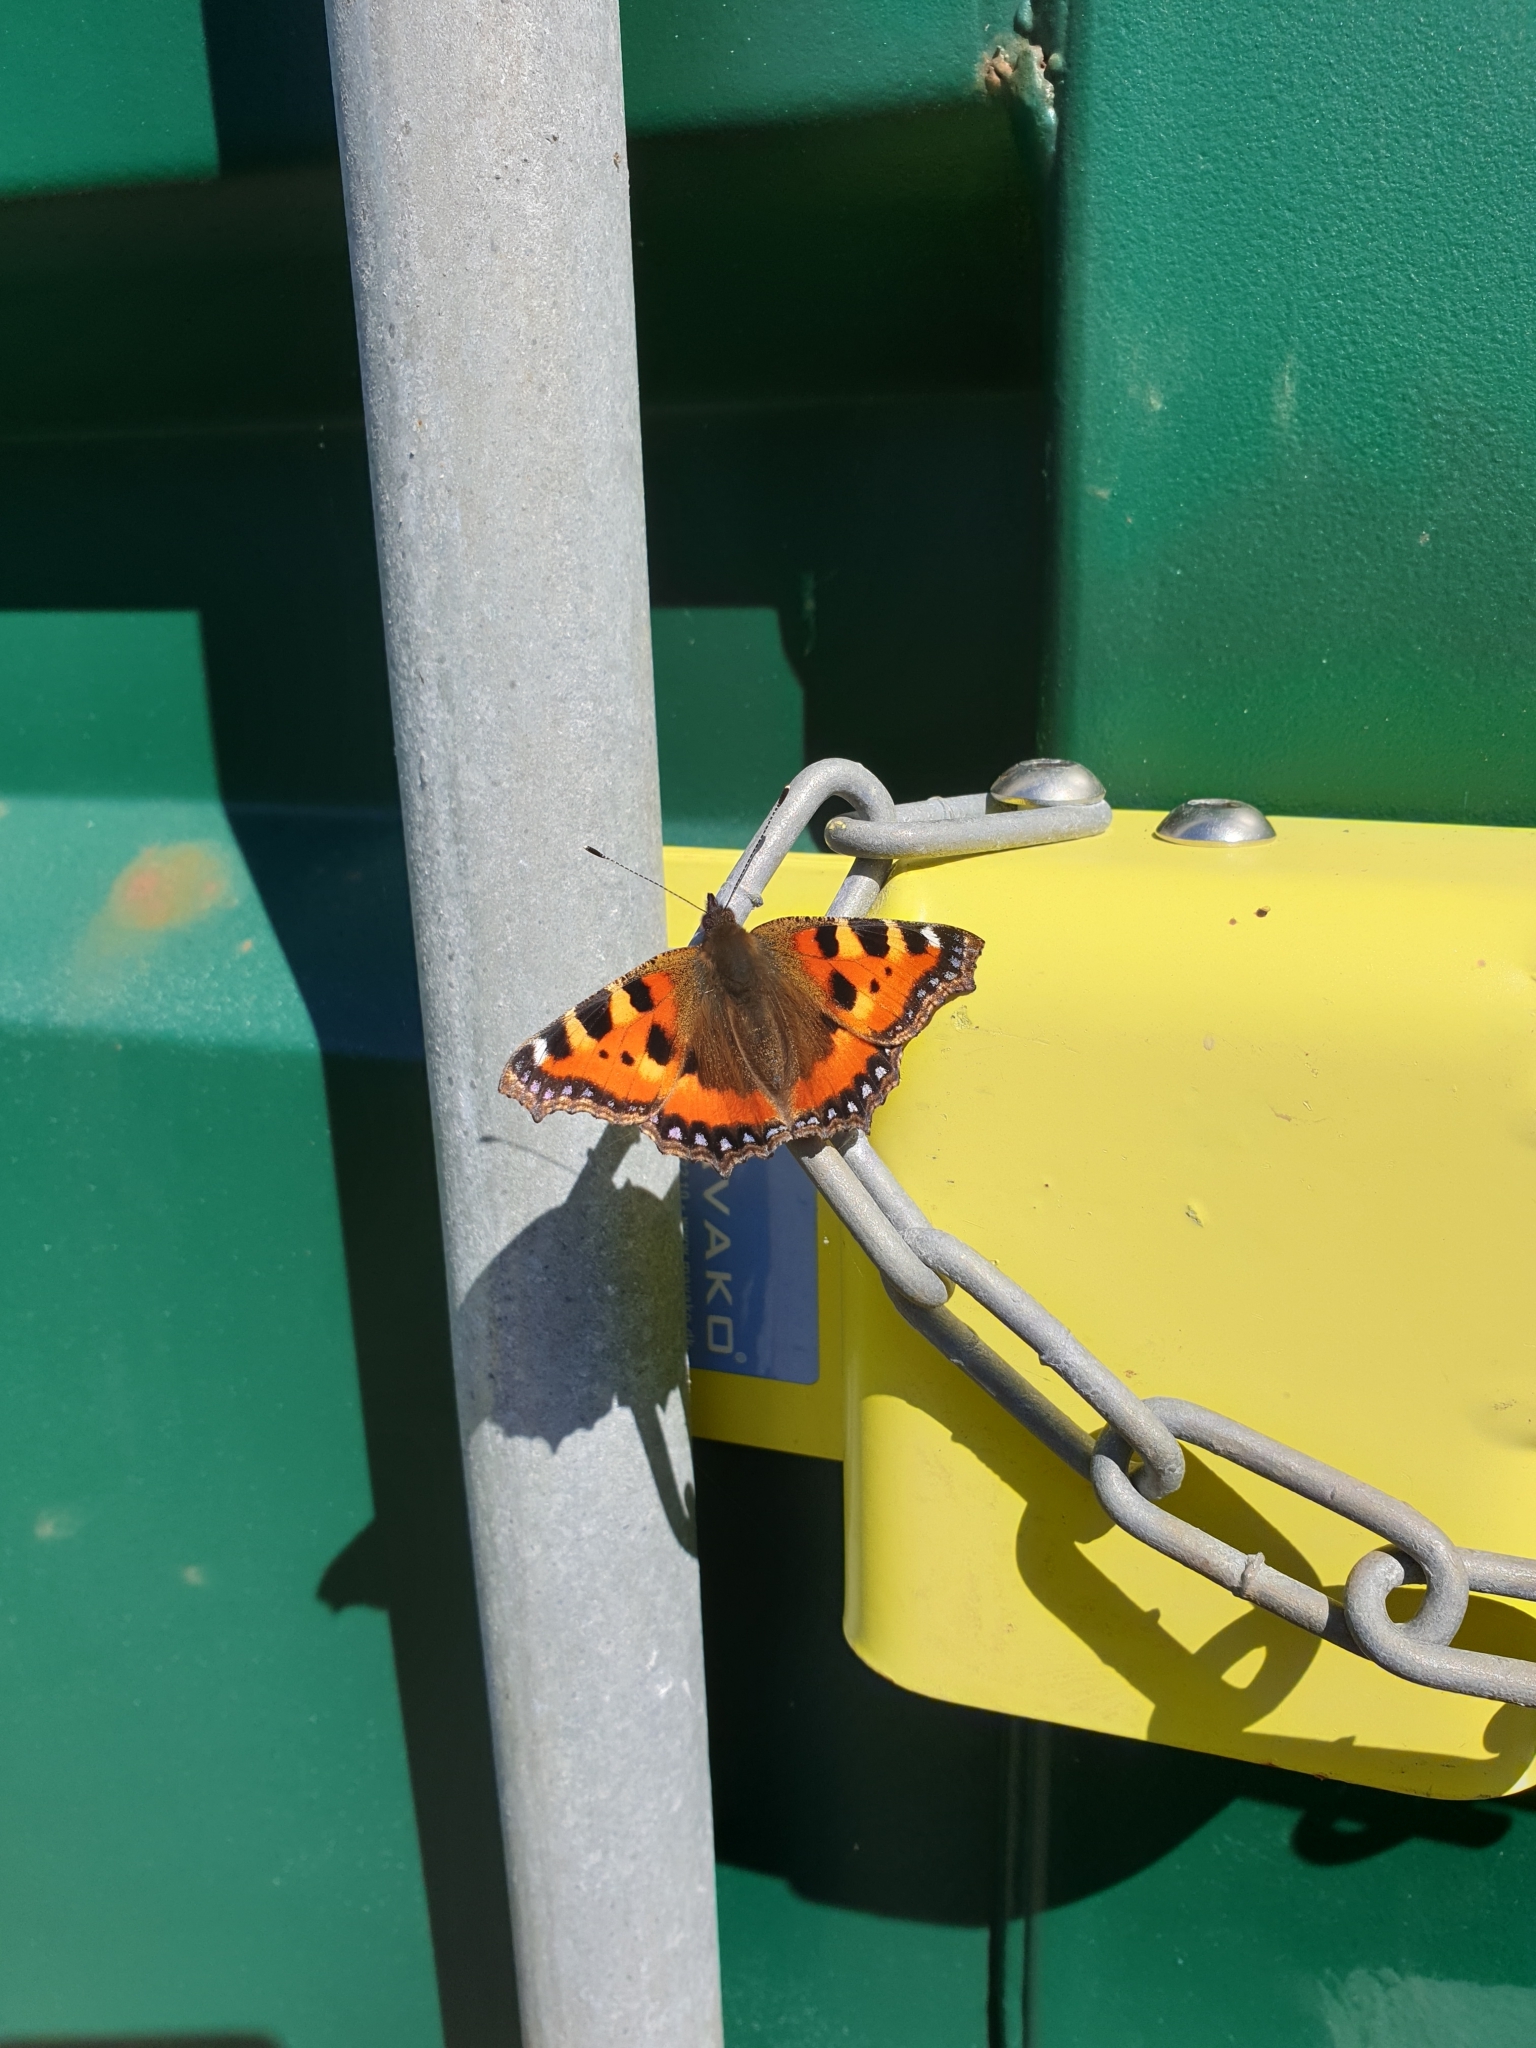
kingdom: Animalia
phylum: Arthropoda
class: Insecta
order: Lepidoptera
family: Nymphalidae
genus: Aglais
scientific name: Aglais urticae
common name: Small tortoiseshell
